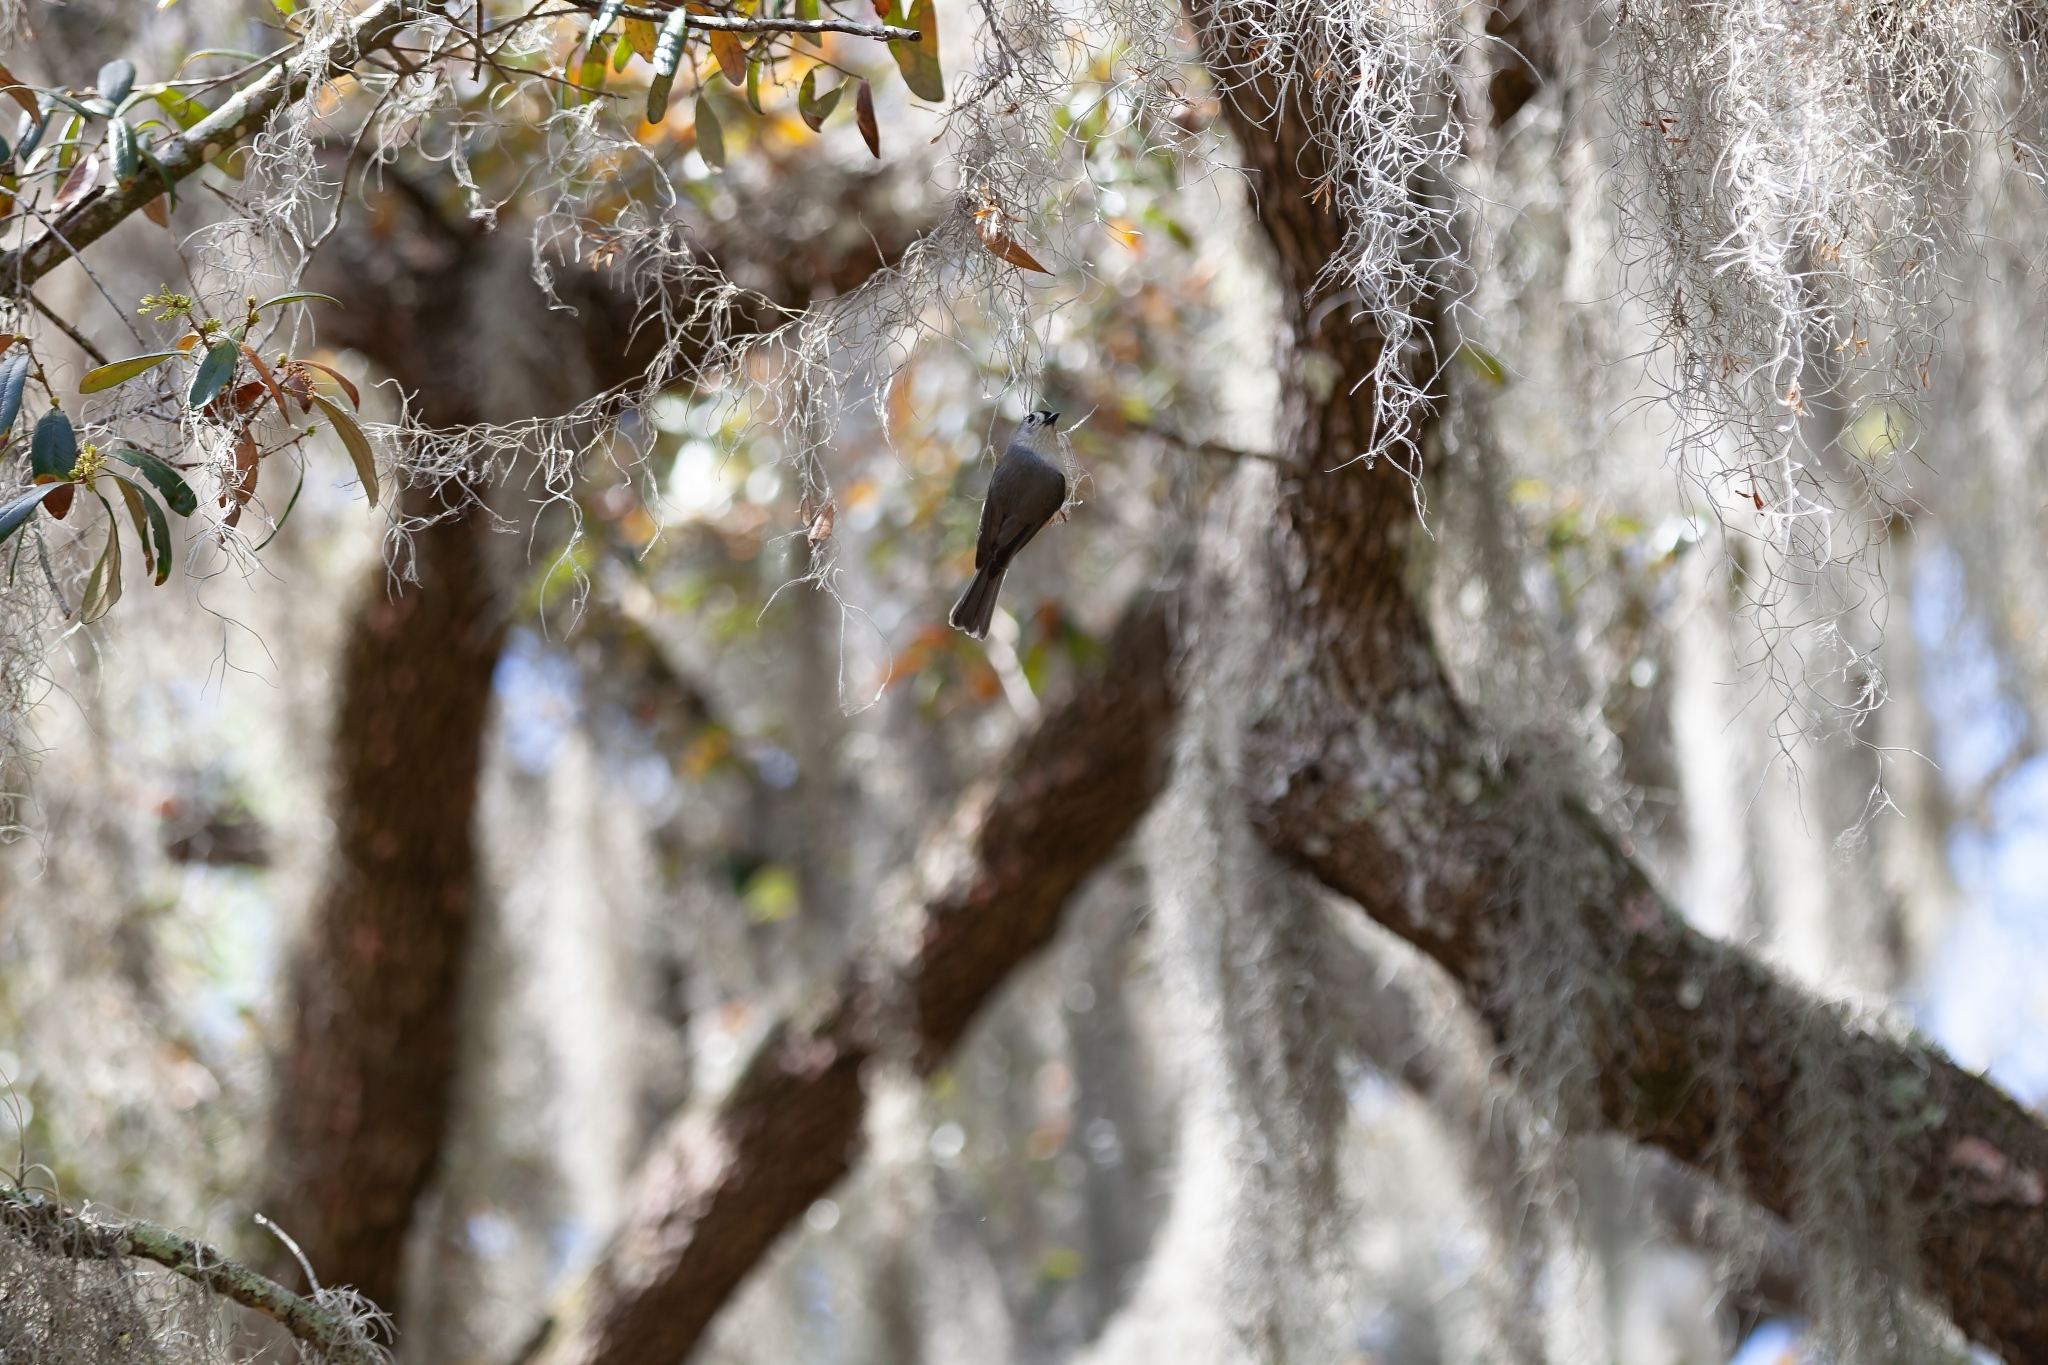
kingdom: Animalia
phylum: Chordata
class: Aves
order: Passeriformes
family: Paridae
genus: Baeolophus
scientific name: Baeolophus bicolor
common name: Tufted titmouse
